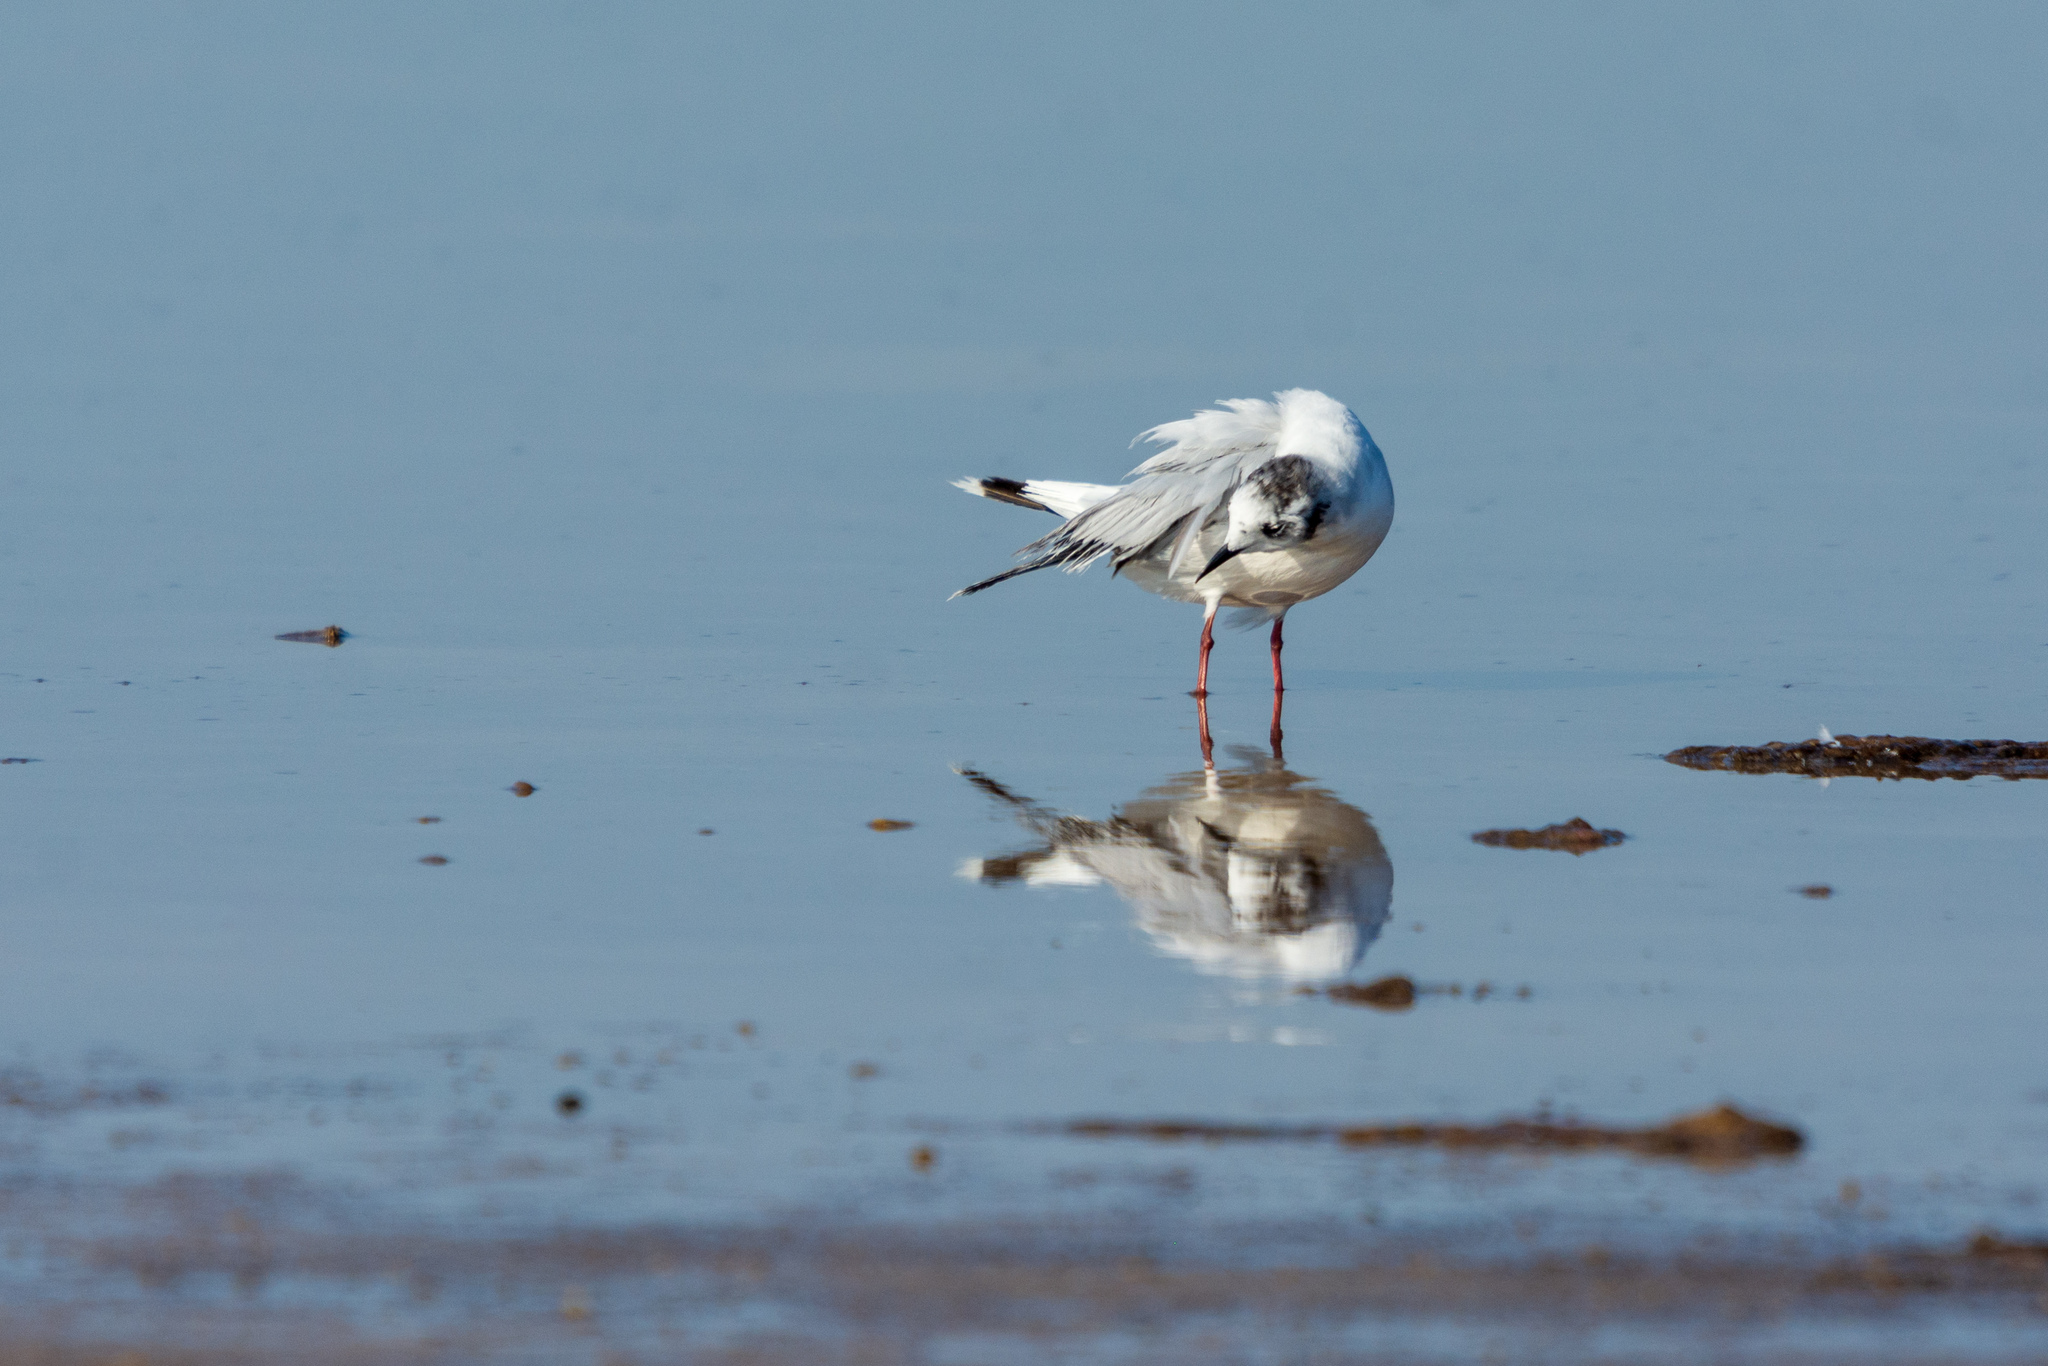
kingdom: Animalia
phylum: Chordata
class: Aves
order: Charadriiformes
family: Laridae
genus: Hydrocoloeus
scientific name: Hydrocoloeus minutus
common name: Little gull
